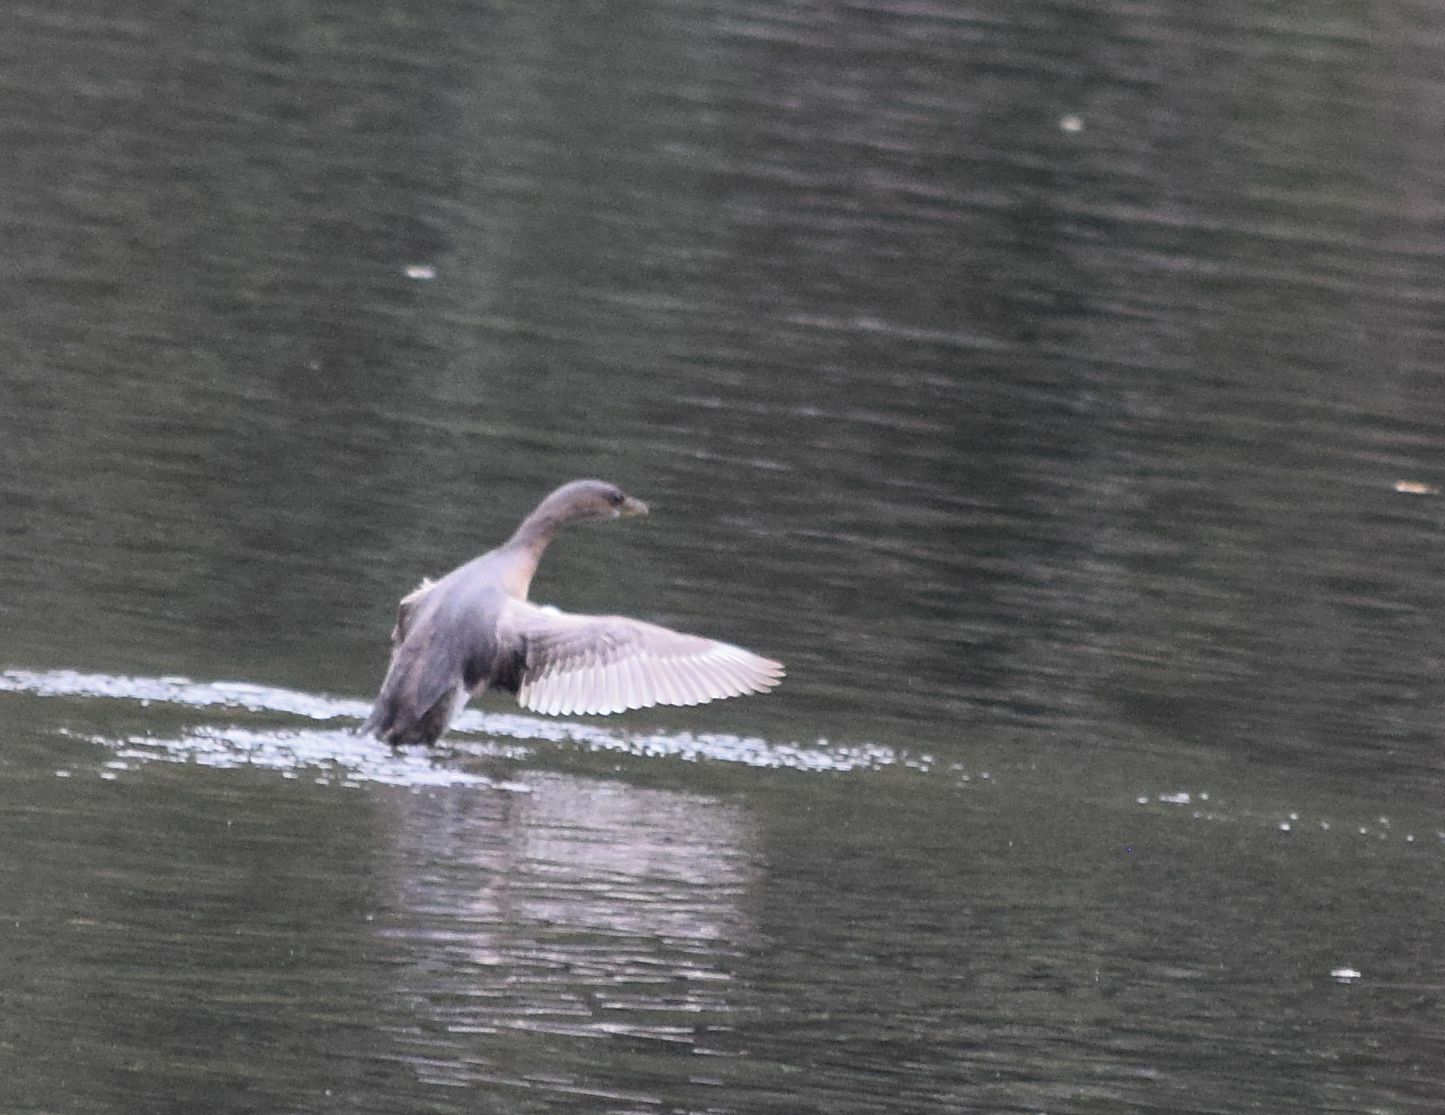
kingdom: Animalia
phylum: Chordata
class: Aves
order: Podicipediformes
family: Podicipedidae
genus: Podilymbus
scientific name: Podilymbus podiceps
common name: Pied-billed grebe
